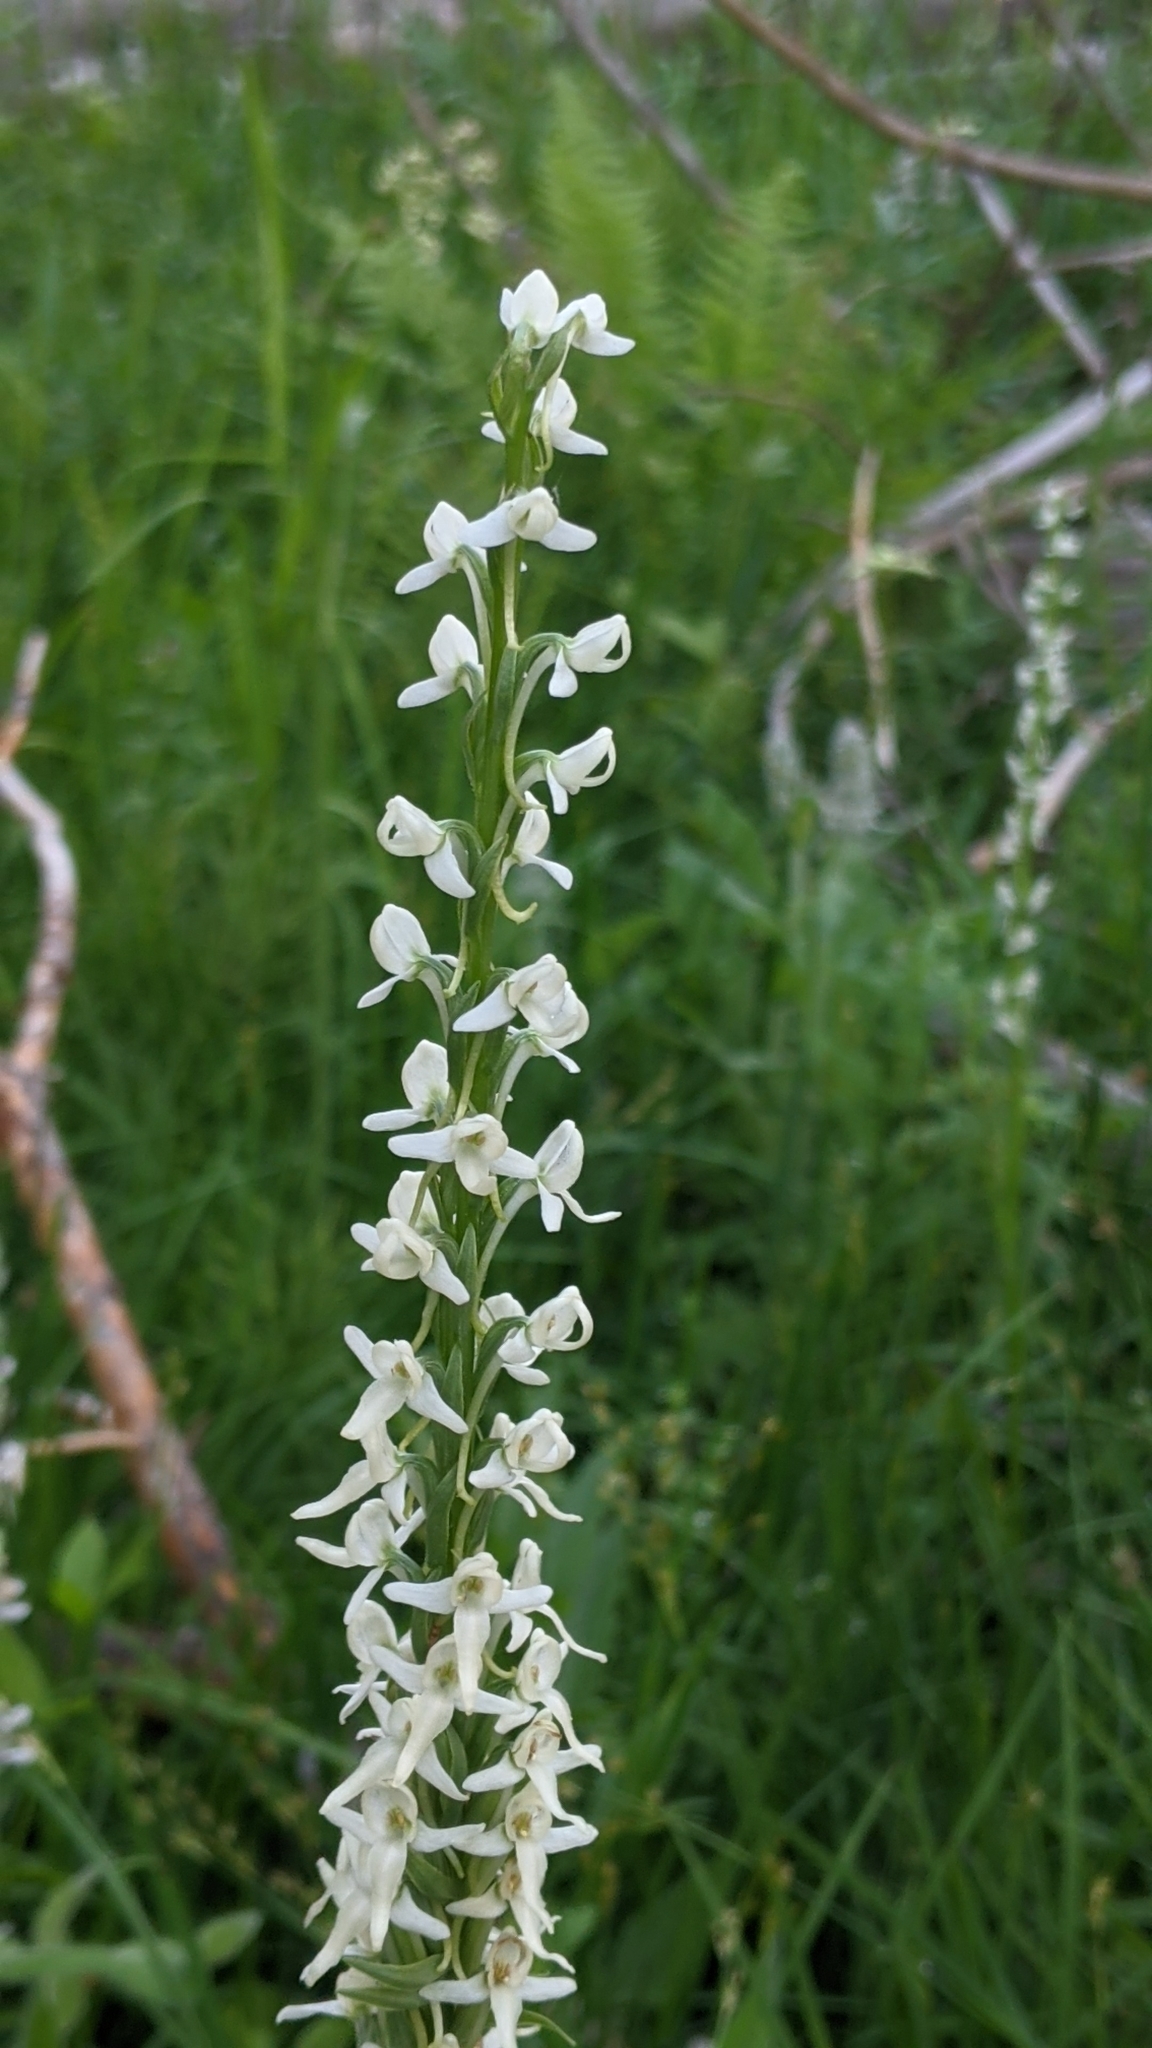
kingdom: Plantae
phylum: Tracheophyta
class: Liliopsida
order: Asparagales
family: Orchidaceae
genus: Platanthera
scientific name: Platanthera dilatata
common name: Bog candles
